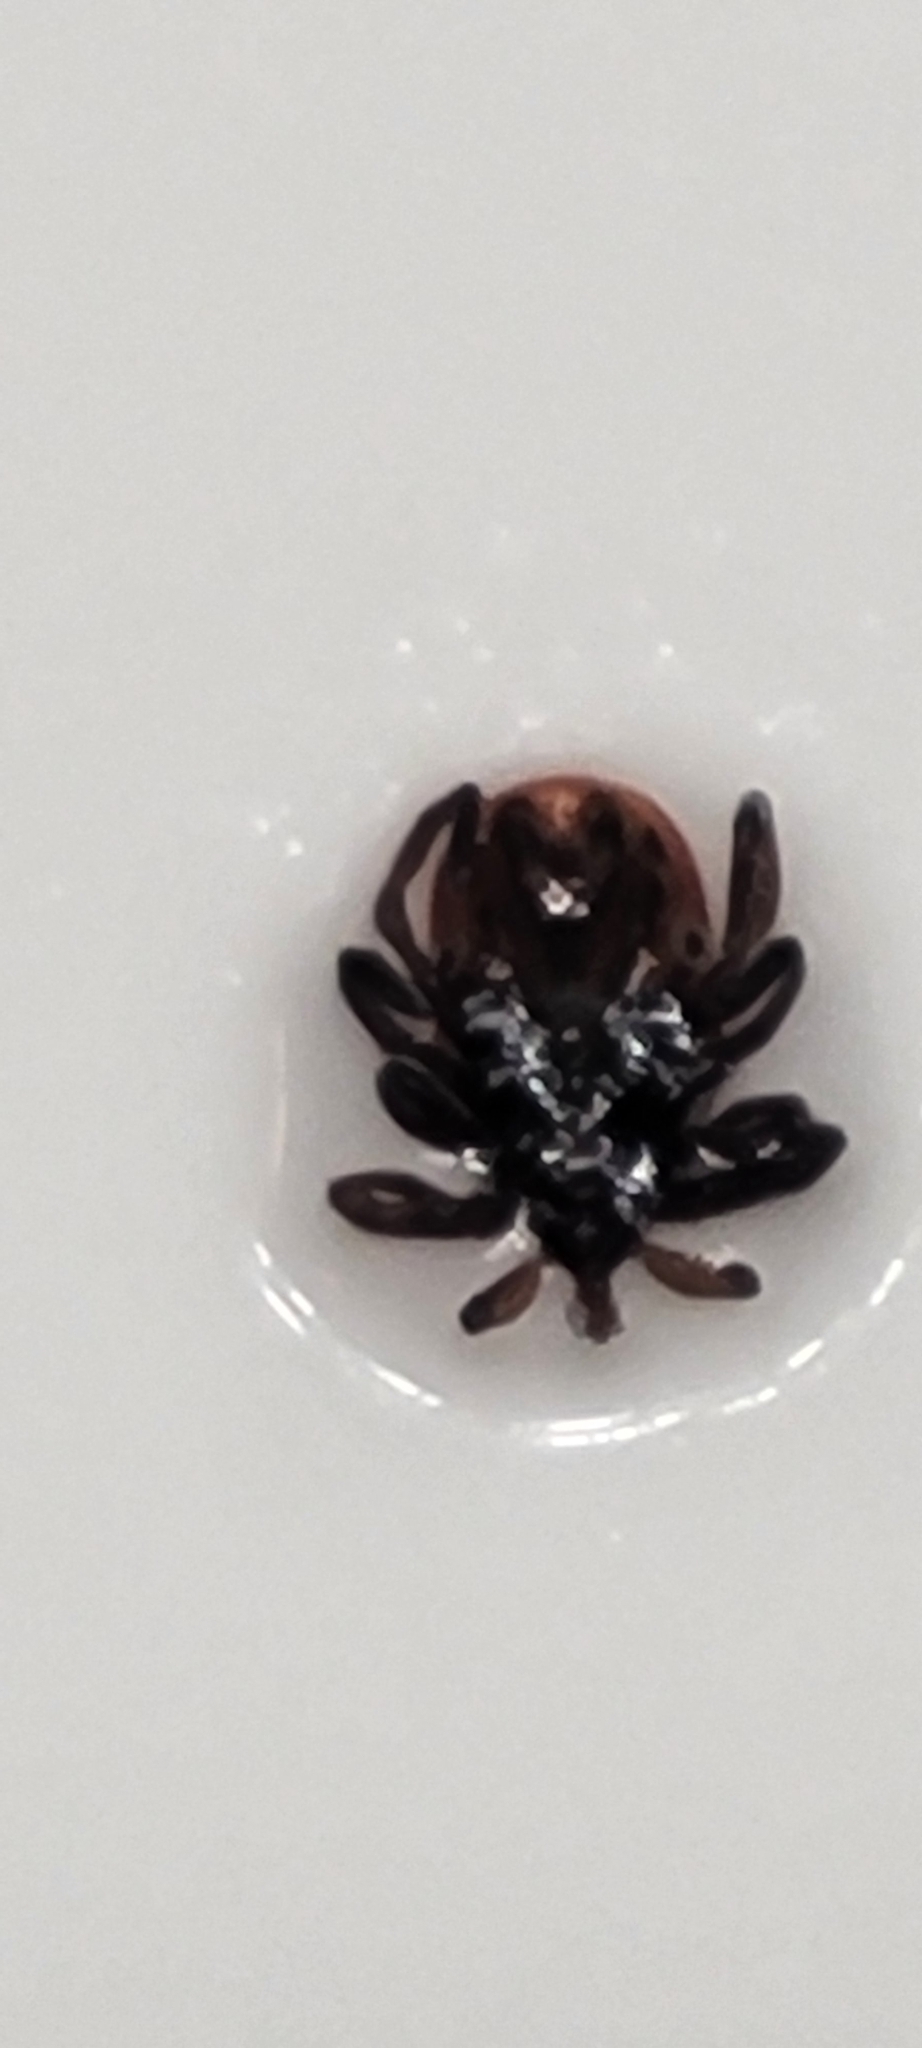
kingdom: Animalia
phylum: Arthropoda
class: Arachnida
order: Ixodida
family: Ixodidae
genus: Ixodes
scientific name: Ixodes scapularis
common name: Black legged tick
